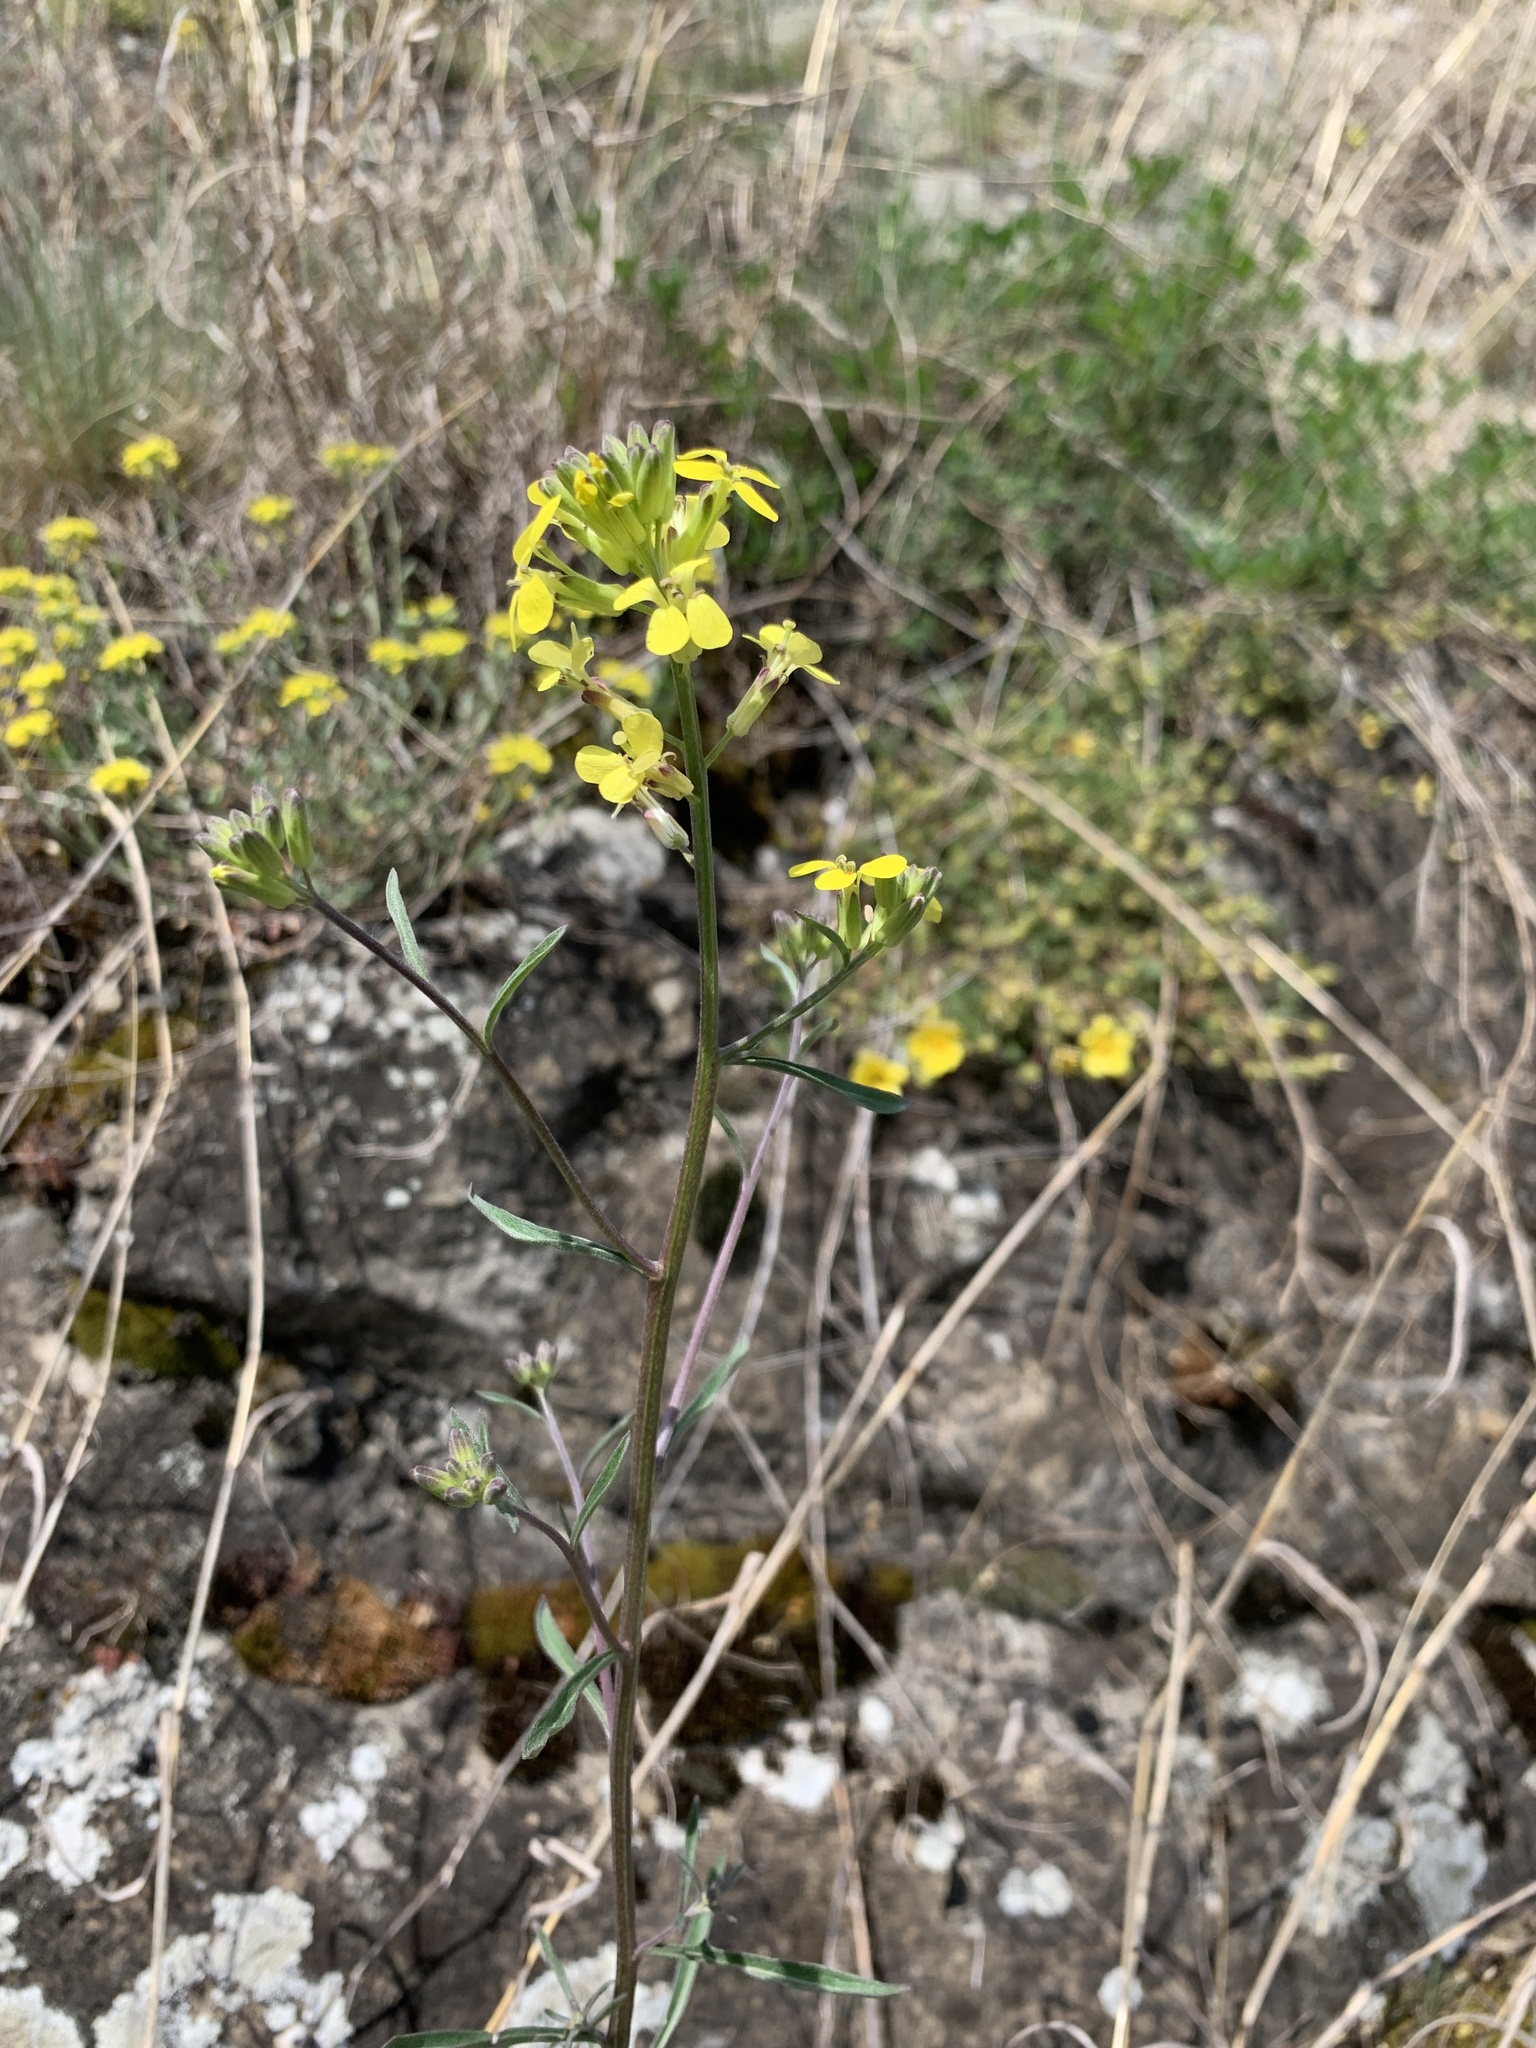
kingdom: Plantae
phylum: Tracheophyta
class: Magnoliopsida
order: Brassicales
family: Brassicaceae
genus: Erysimum
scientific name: Erysimum crepidifolium
